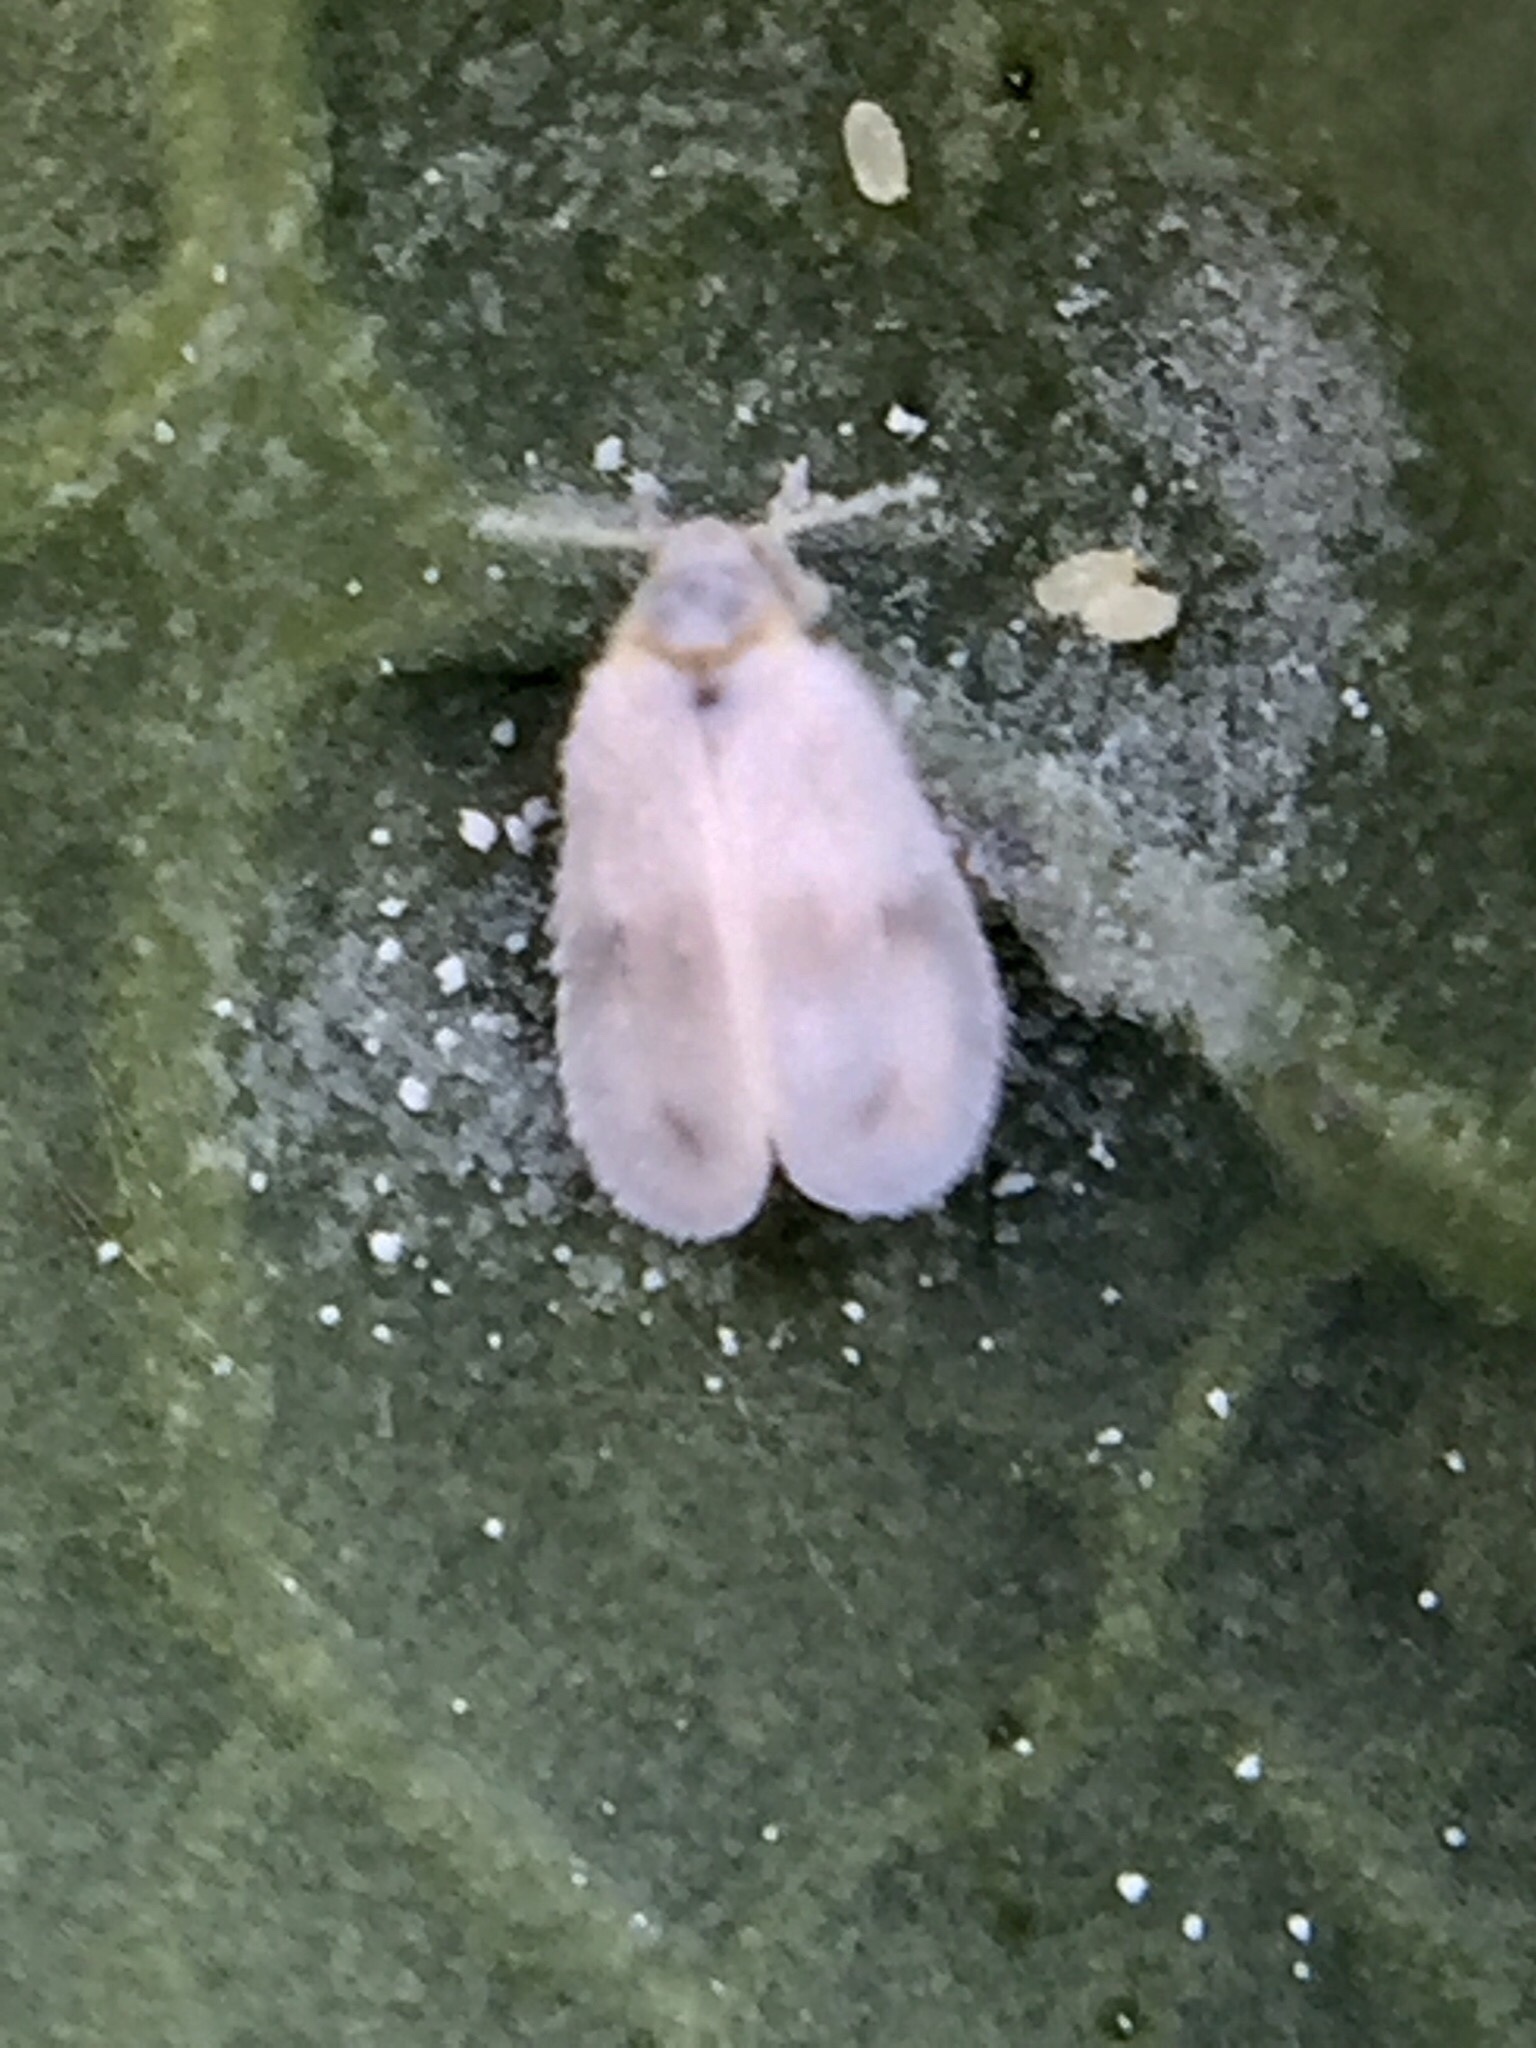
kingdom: Animalia
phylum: Arthropoda
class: Insecta
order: Hemiptera
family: Aleyrodidae
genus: Aleyrodes
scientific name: Aleyrodes proletella
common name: Cabbage whitefly
